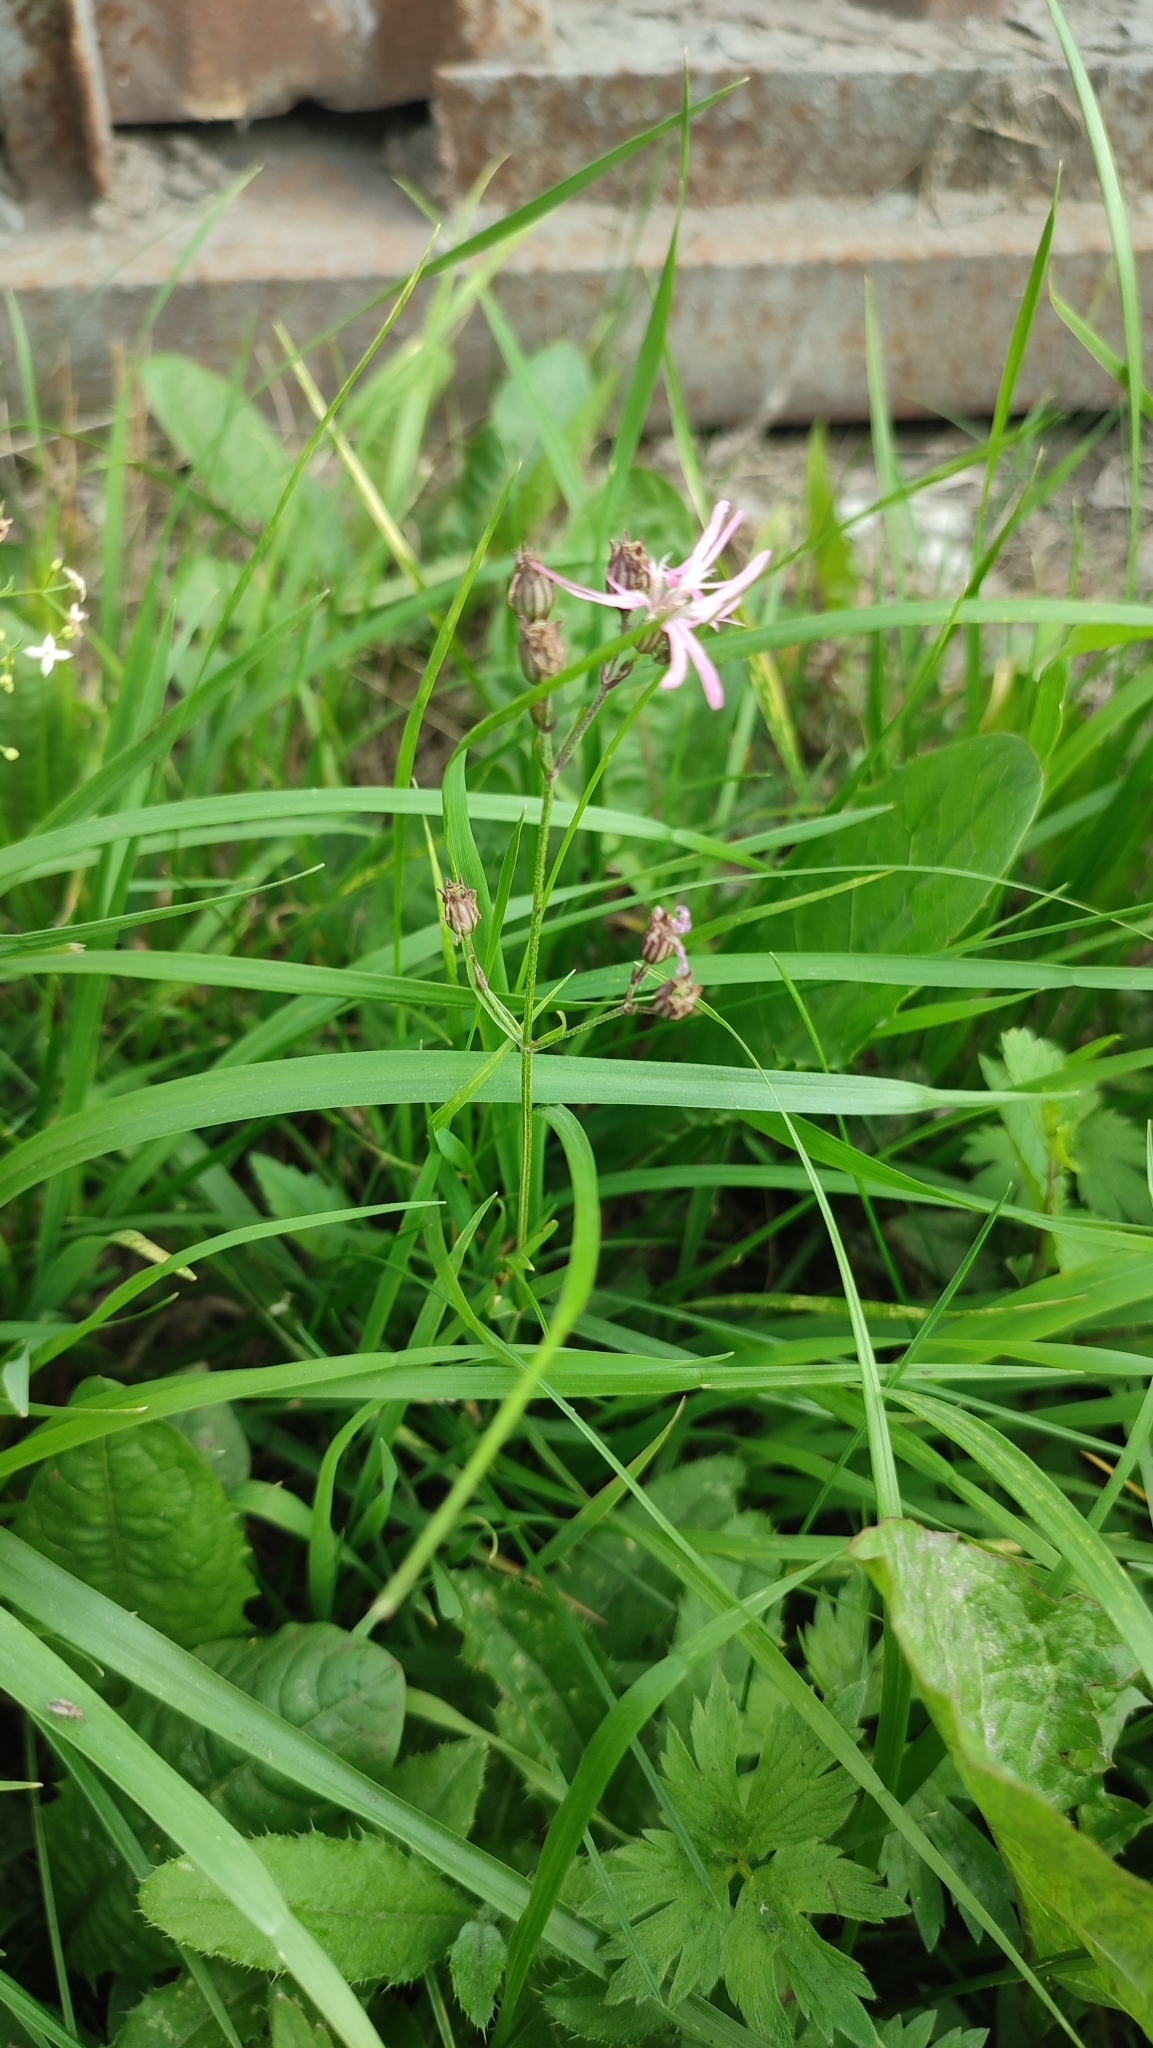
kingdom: Plantae
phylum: Tracheophyta
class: Magnoliopsida
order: Caryophyllales
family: Caryophyllaceae
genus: Silene
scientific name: Silene flos-cuculi
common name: Ragged-robin
